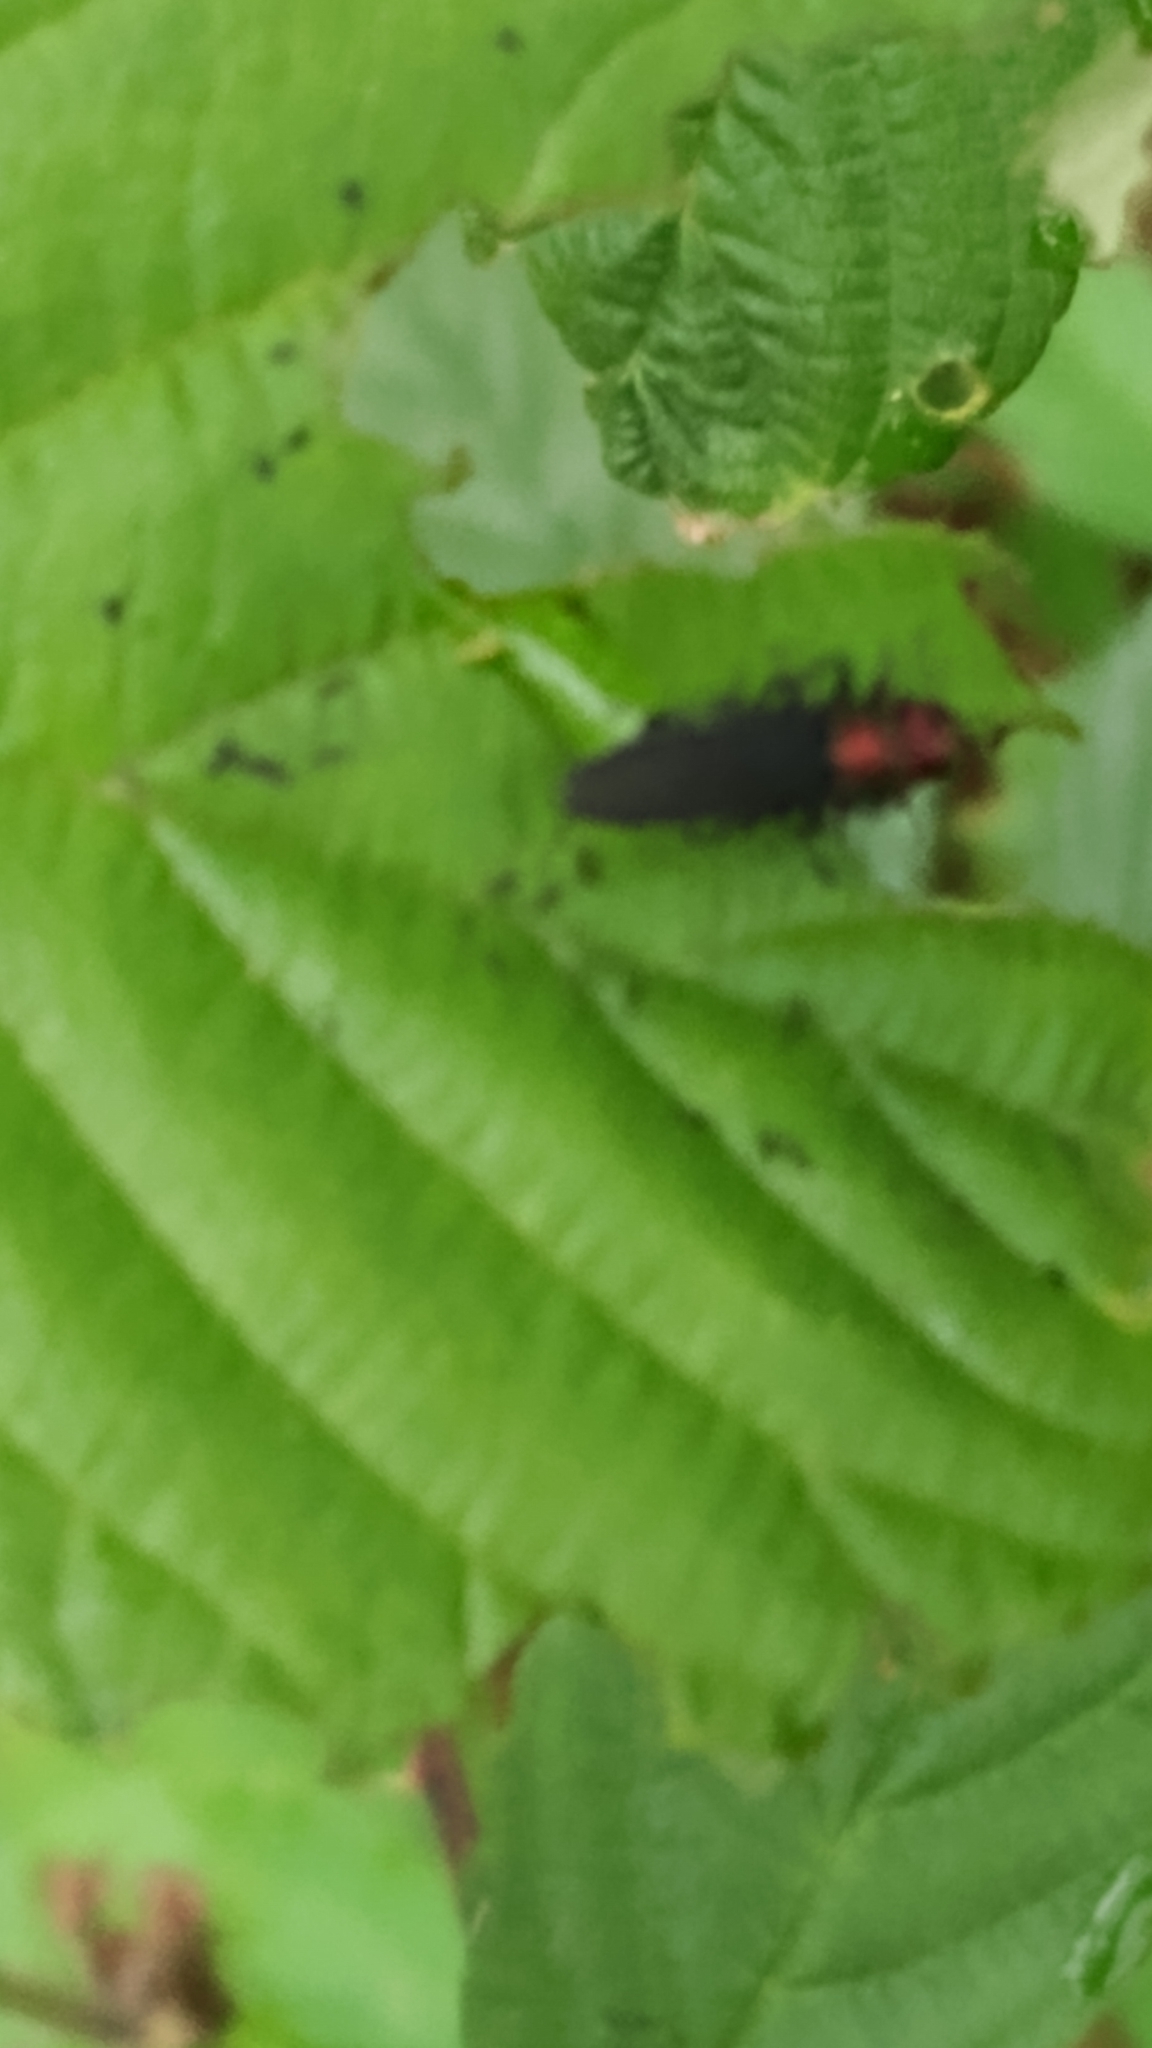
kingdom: Animalia
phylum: Arthropoda
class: Insecta
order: Coleoptera
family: Buprestidae
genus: Agrilus
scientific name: Agrilus ruficollis
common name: Red-necked cane borer beetle
